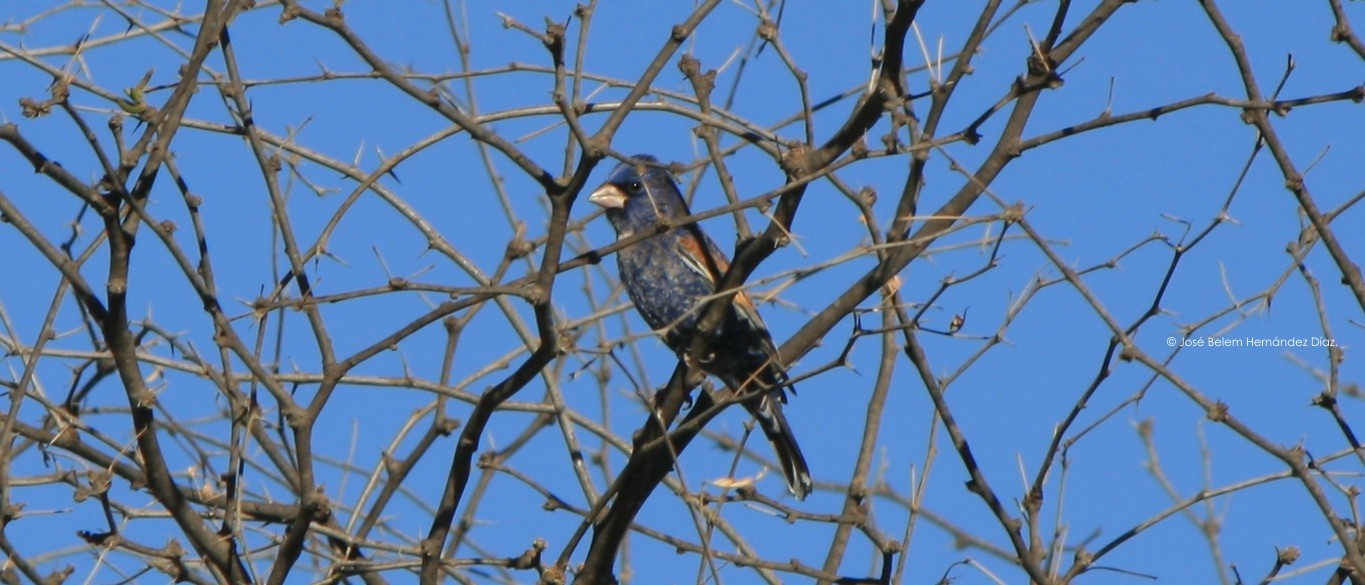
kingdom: Animalia
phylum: Chordata
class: Aves
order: Passeriformes
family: Cardinalidae
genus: Passerina
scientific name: Passerina caerulea
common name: Blue grosbeak
